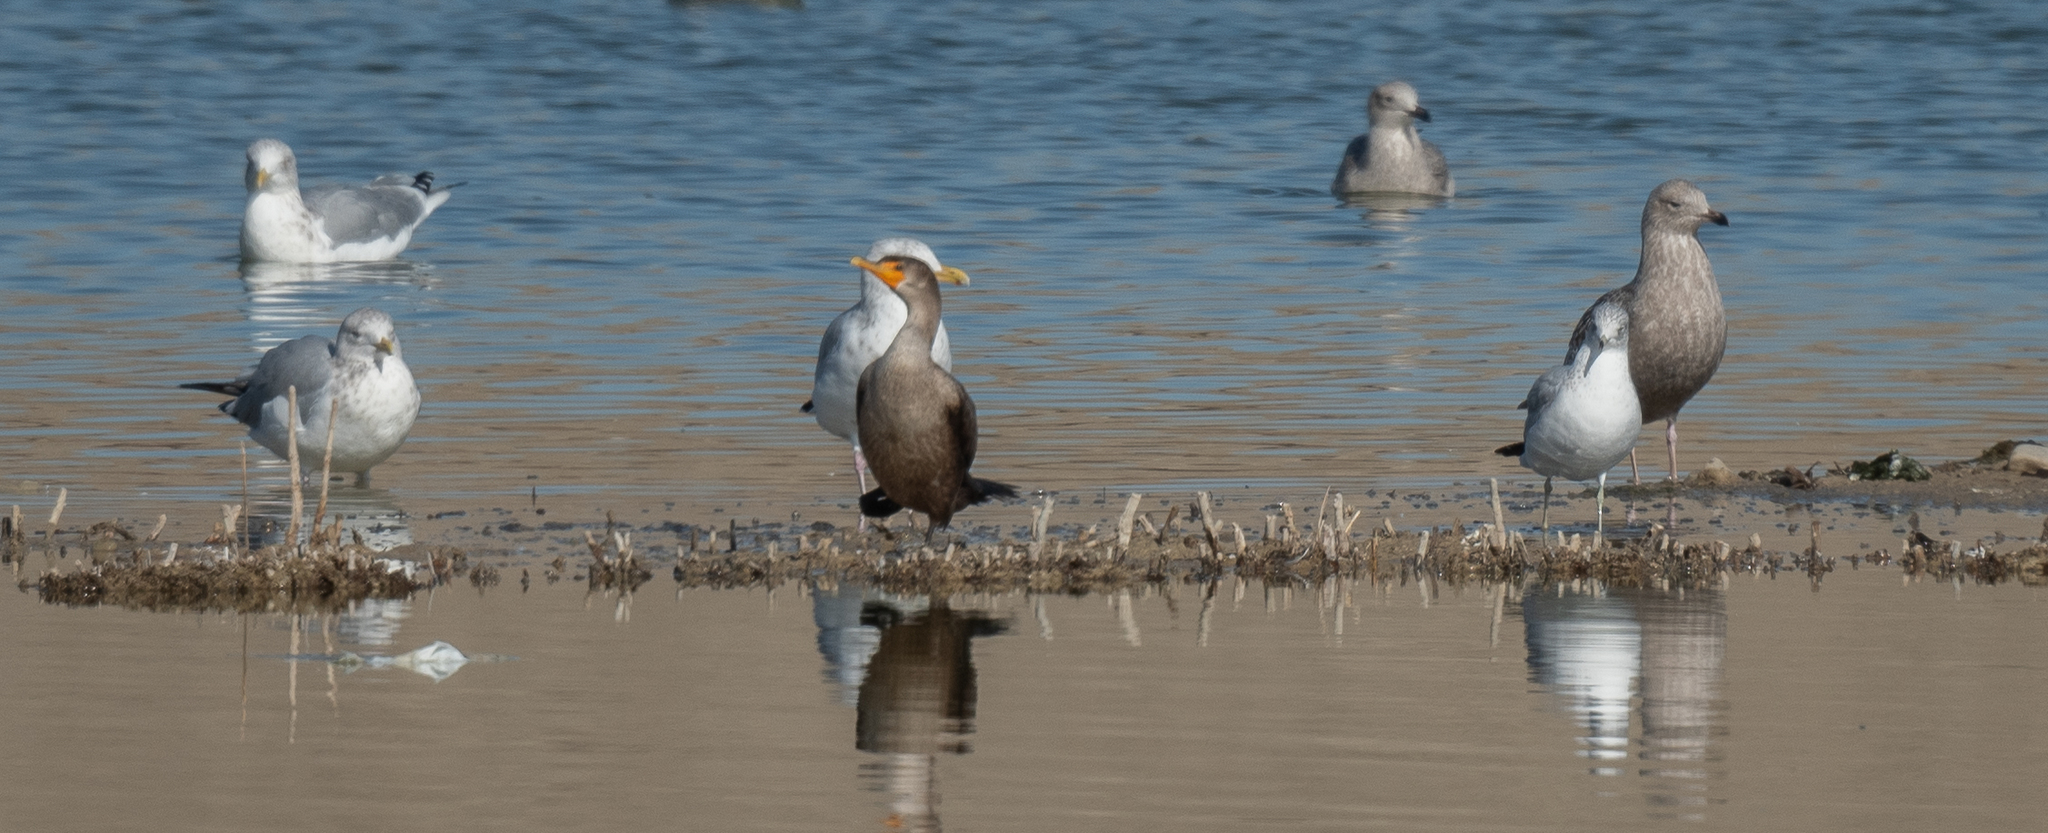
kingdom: Animalia
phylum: Chordata
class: Aves
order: Suliformes
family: Phalacrocoracidae
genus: Phalacrocorax
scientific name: Phalacrocorax auritus
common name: Double-crested cormorant
